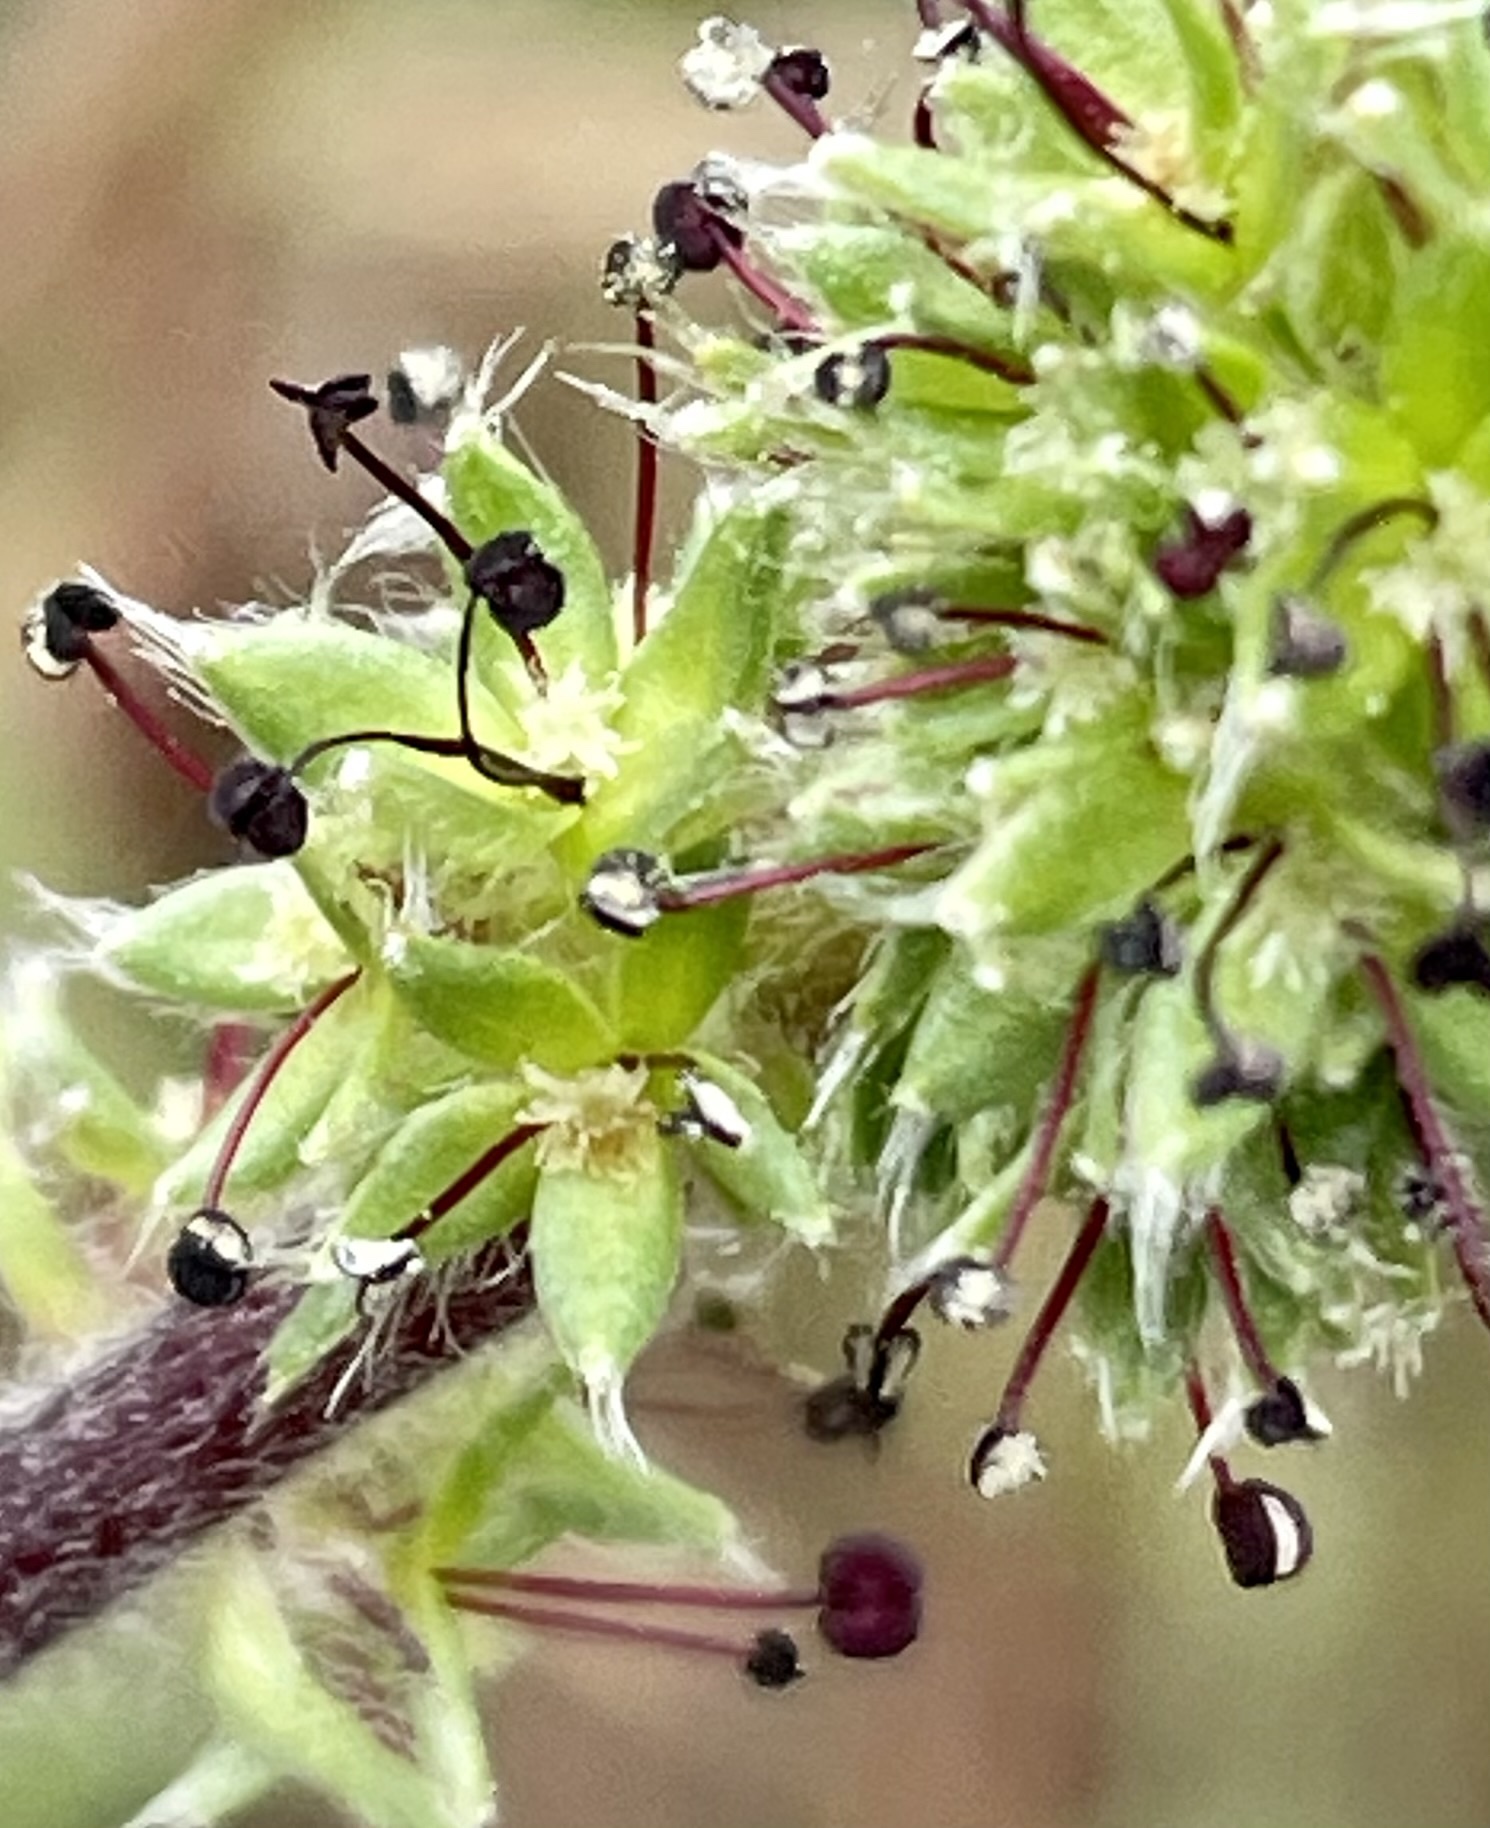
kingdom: Plantae
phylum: Tracheophyta
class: Magnoliopsida
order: Rosales
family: Rosaceae
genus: Acaena
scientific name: Acaena pinnatifida
